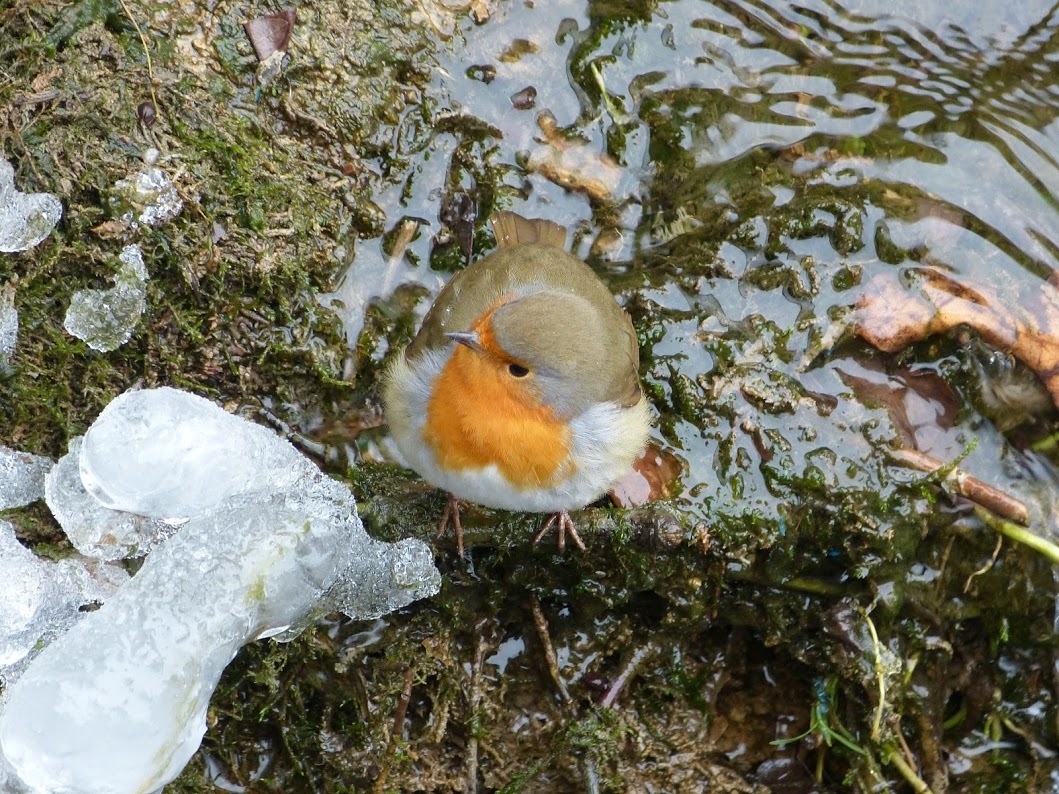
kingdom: Animalia
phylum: Chordata
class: Aves
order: Passeriformes
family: Muscicapidae
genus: Erithacus
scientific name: Erithacus rubecula
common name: European robin
